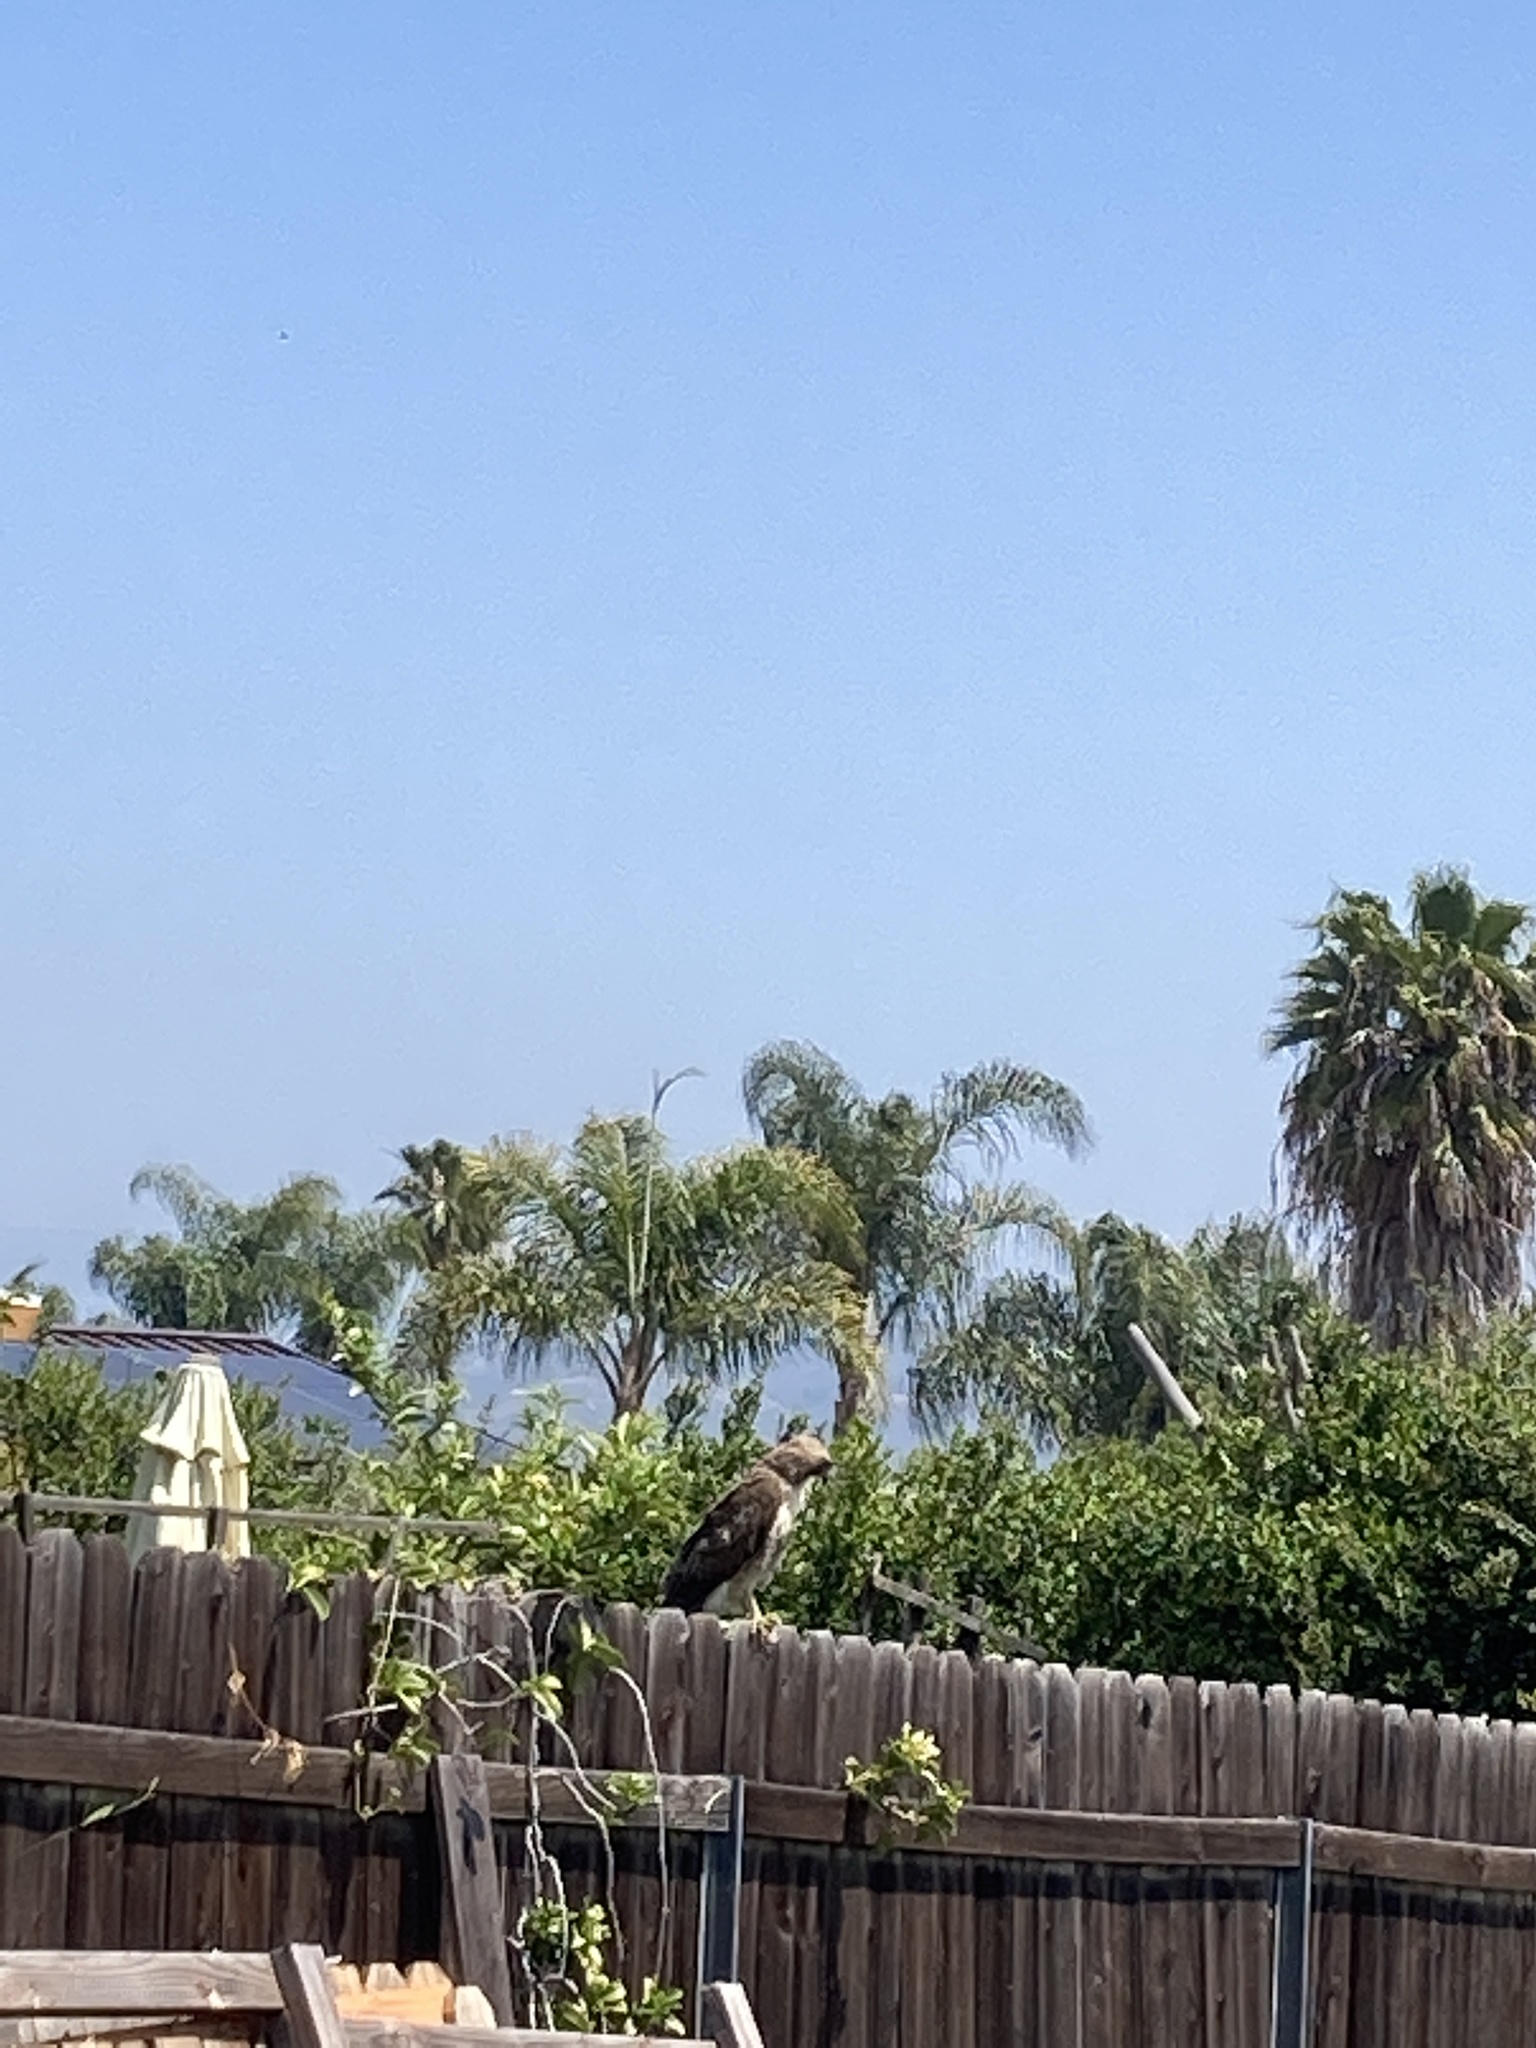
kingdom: Animalia
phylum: Chordata
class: Aves
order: Accipitriformes
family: Accipitridae
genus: Buteo
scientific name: Buteo jamaicensis
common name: Red-tailed hawk
